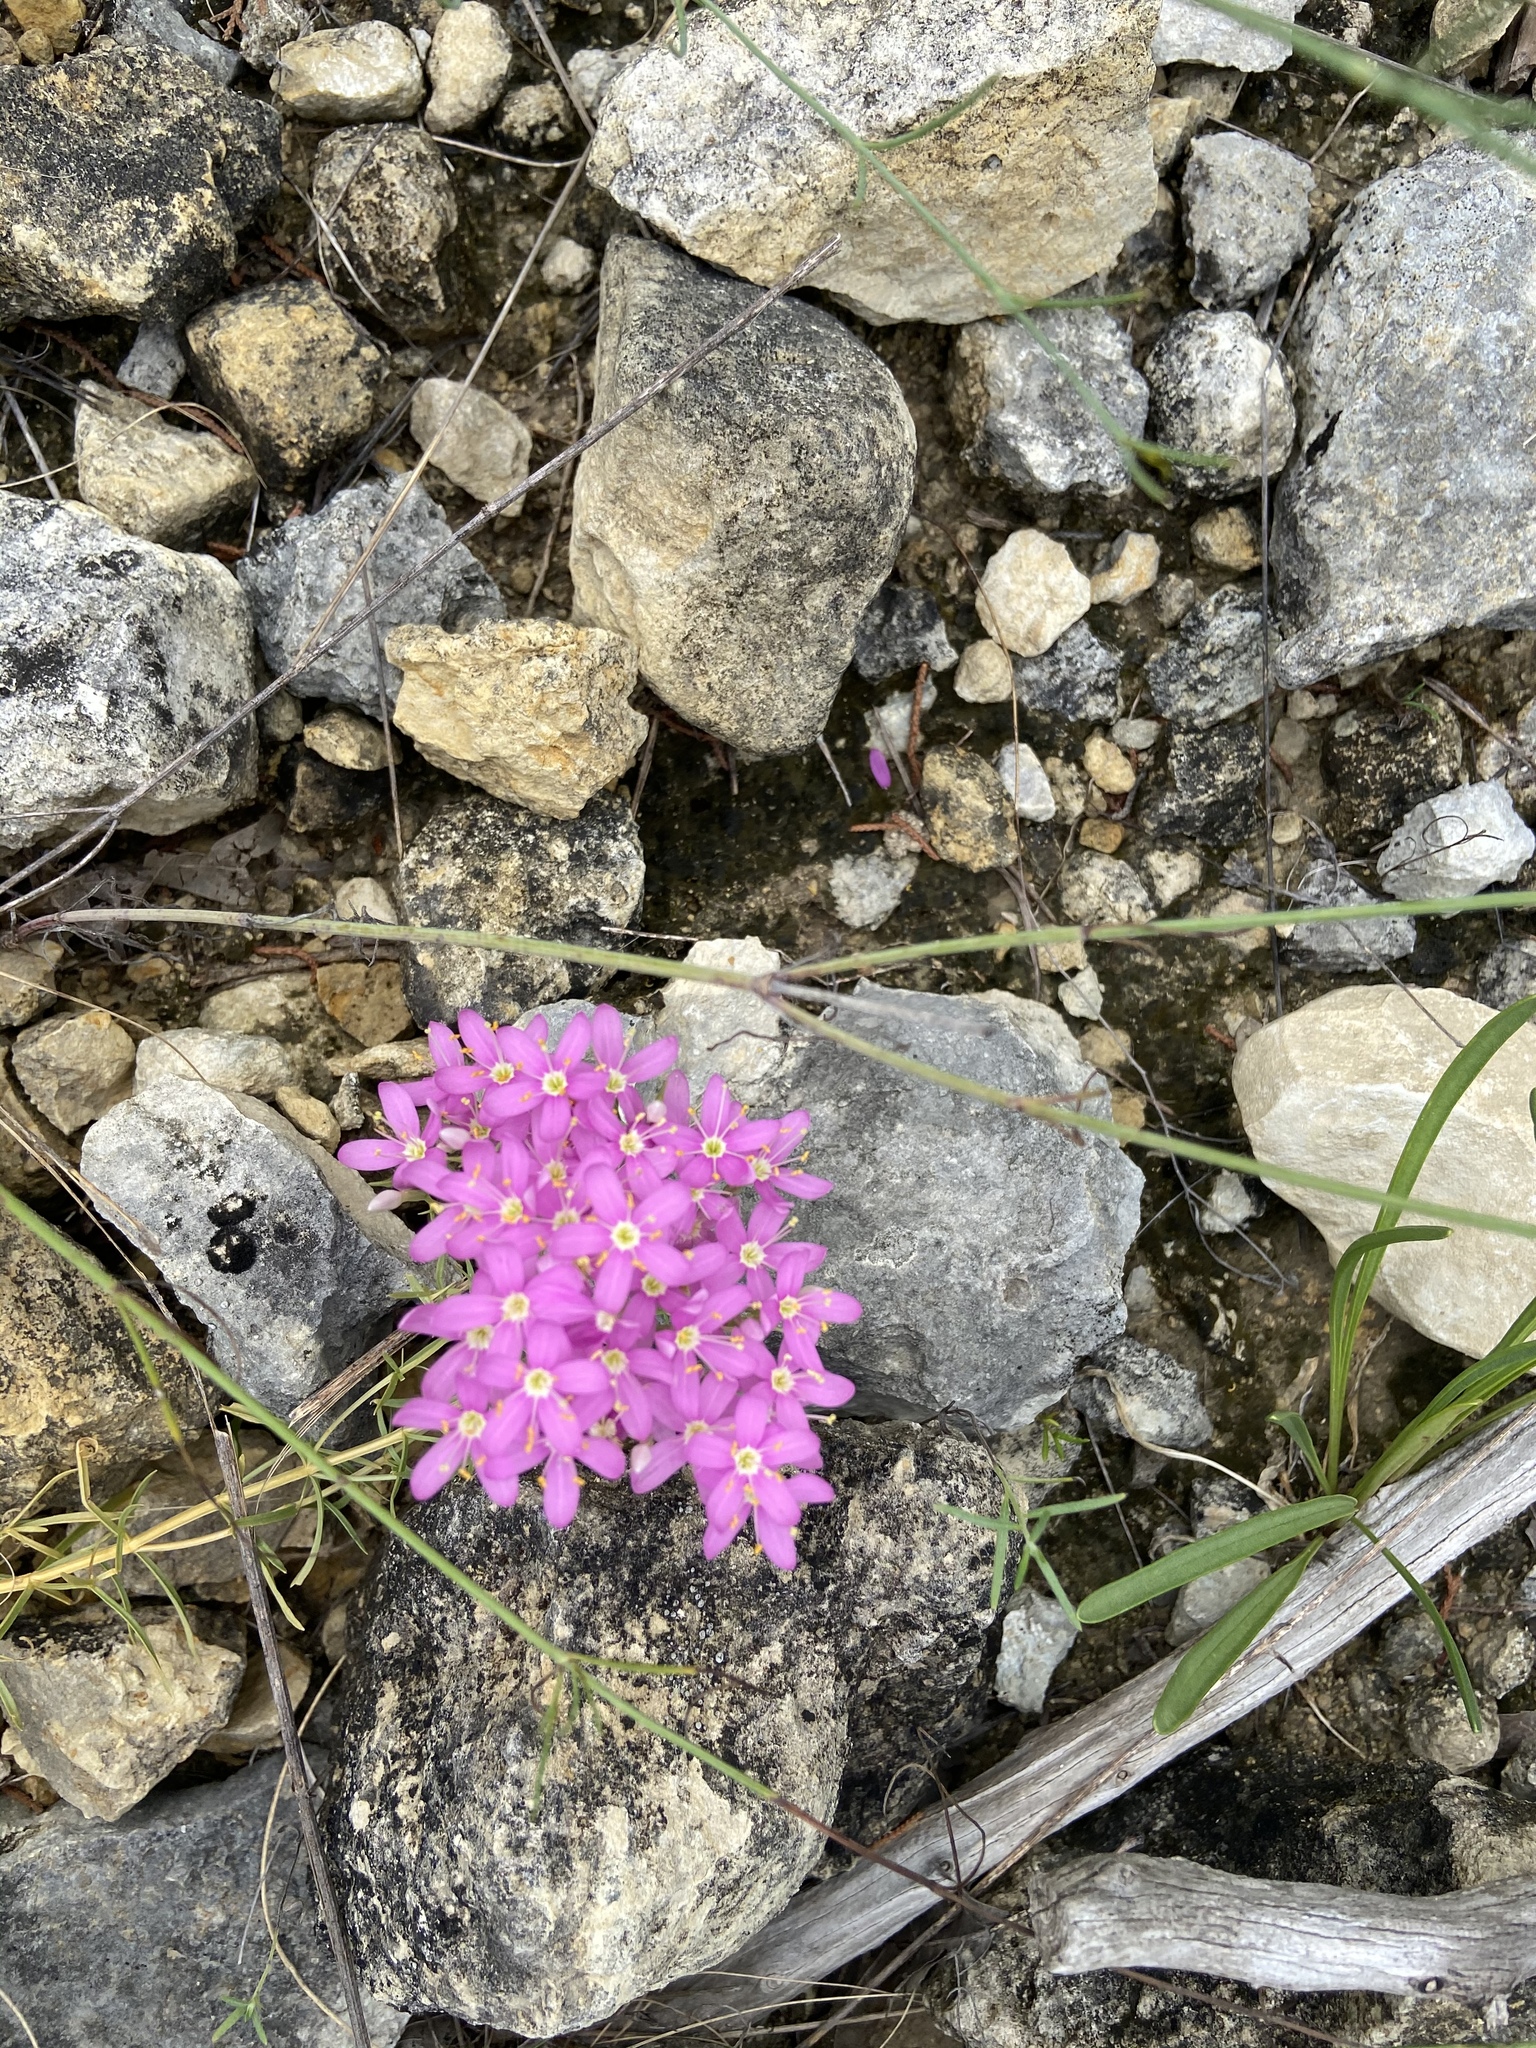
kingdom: Plantae
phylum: Tracheophyta
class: Magnoliopsida
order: Gentianales
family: Gentianaceae
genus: Zeltnera
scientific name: Zeltnera beyrichii
